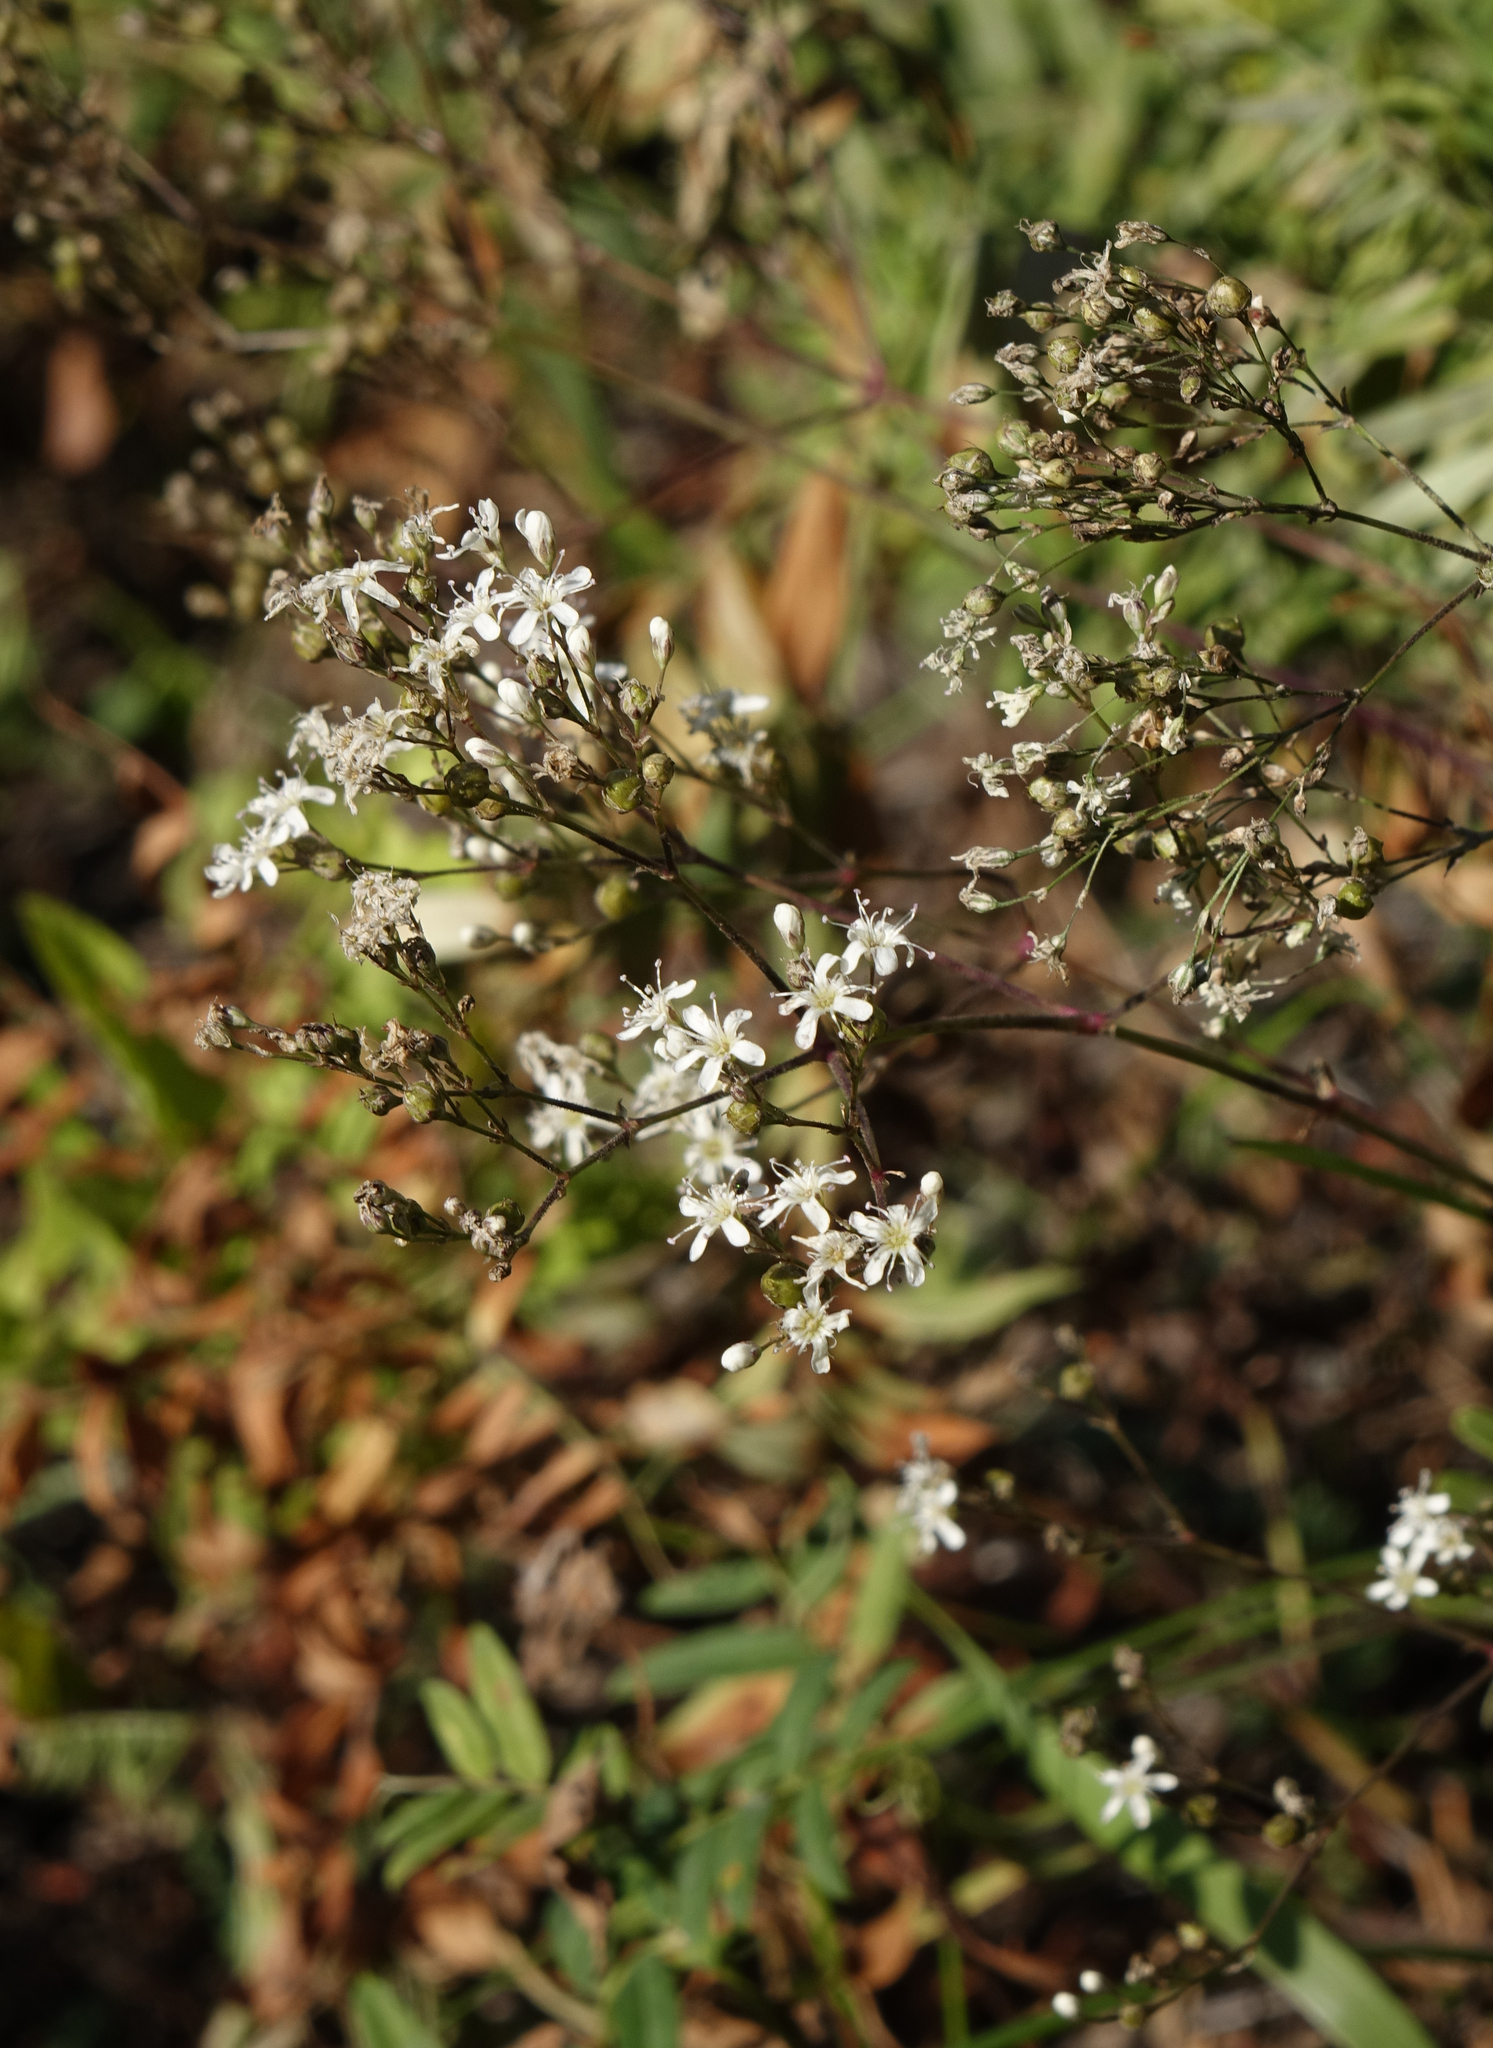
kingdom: Plantae
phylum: Tracheophyta
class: Magnoliopsida
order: Caryophyllales
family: Caryophyllaceae
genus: Gypsophila
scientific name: Gypsophila altissima
